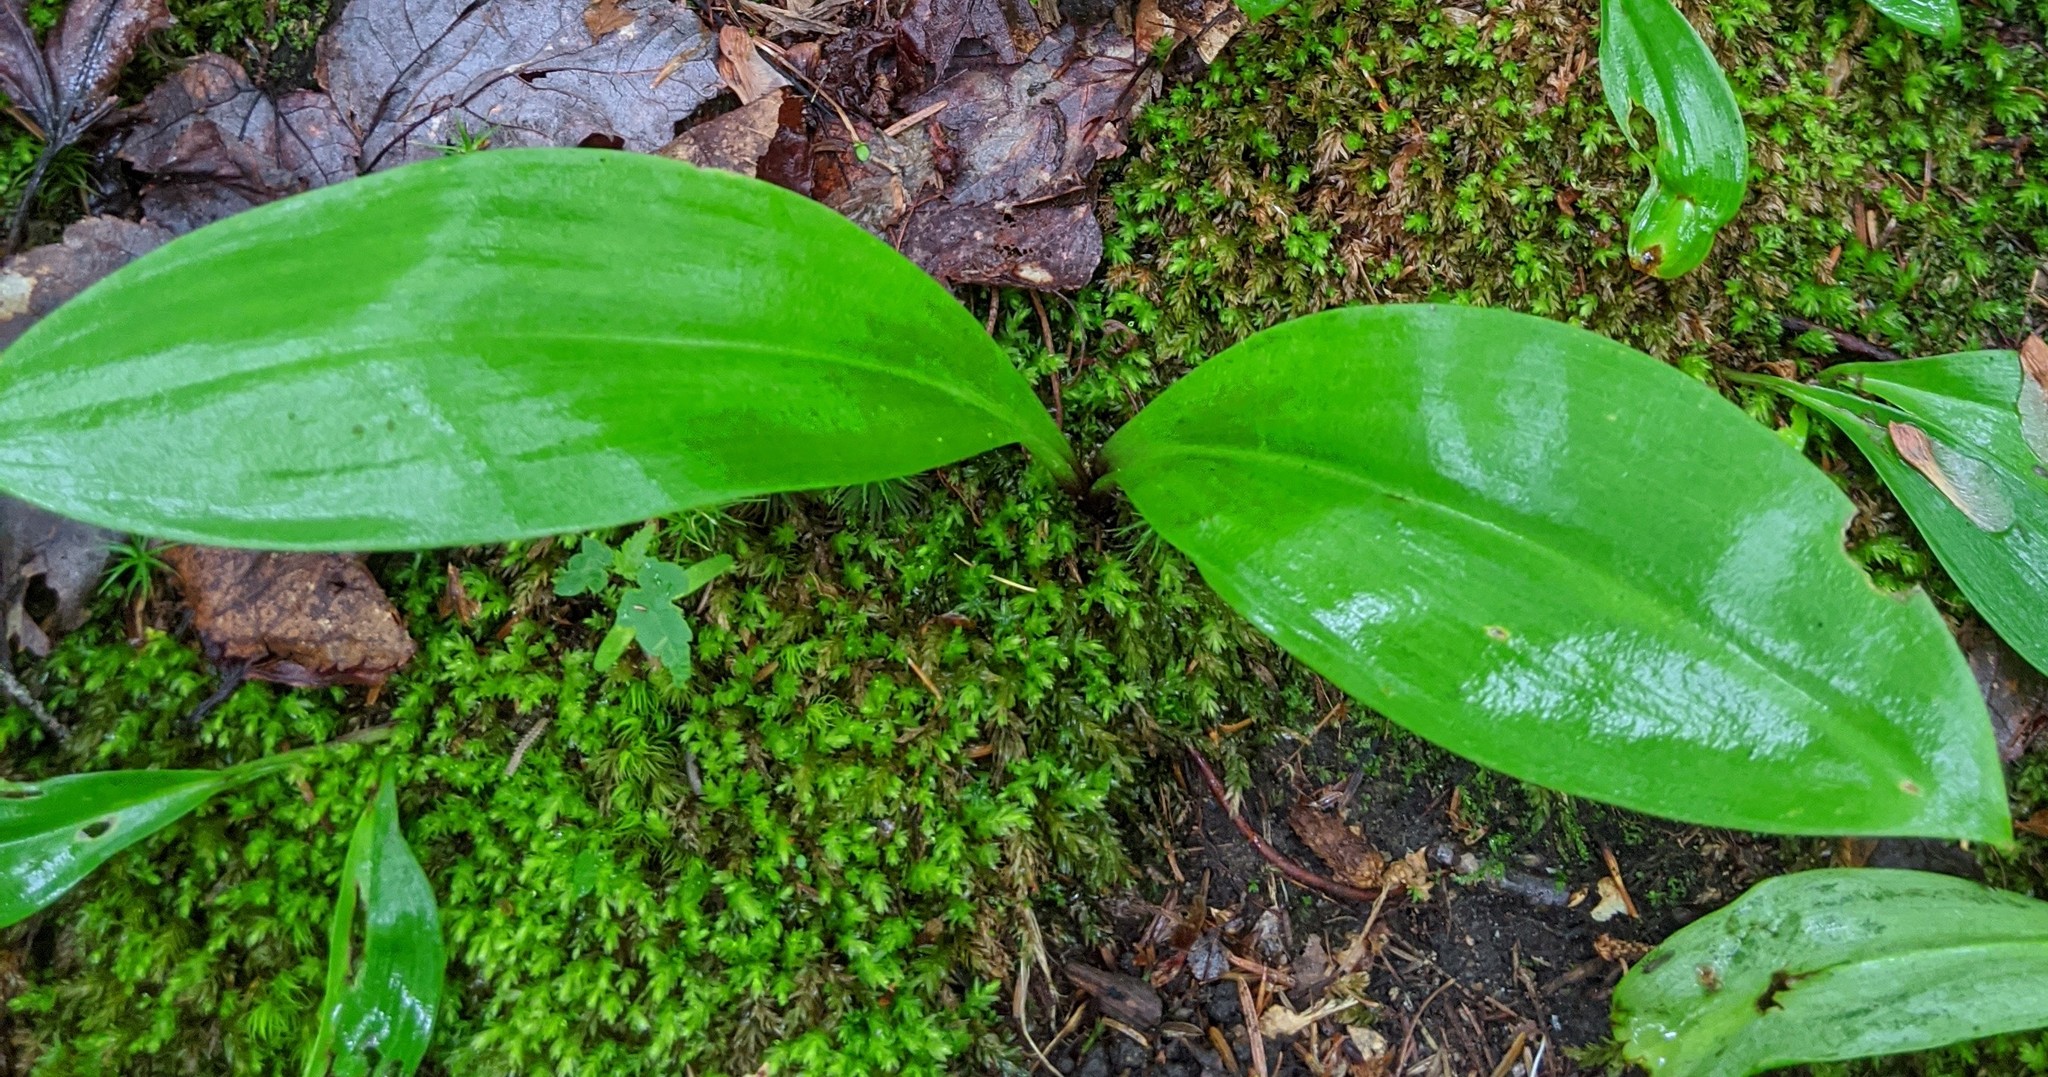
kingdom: Plantae
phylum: Tracheophyta
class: Liliopsida
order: Liliales
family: Liliaceae
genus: Clintonia
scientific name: Clintonia borealis
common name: Yellow clintonia
